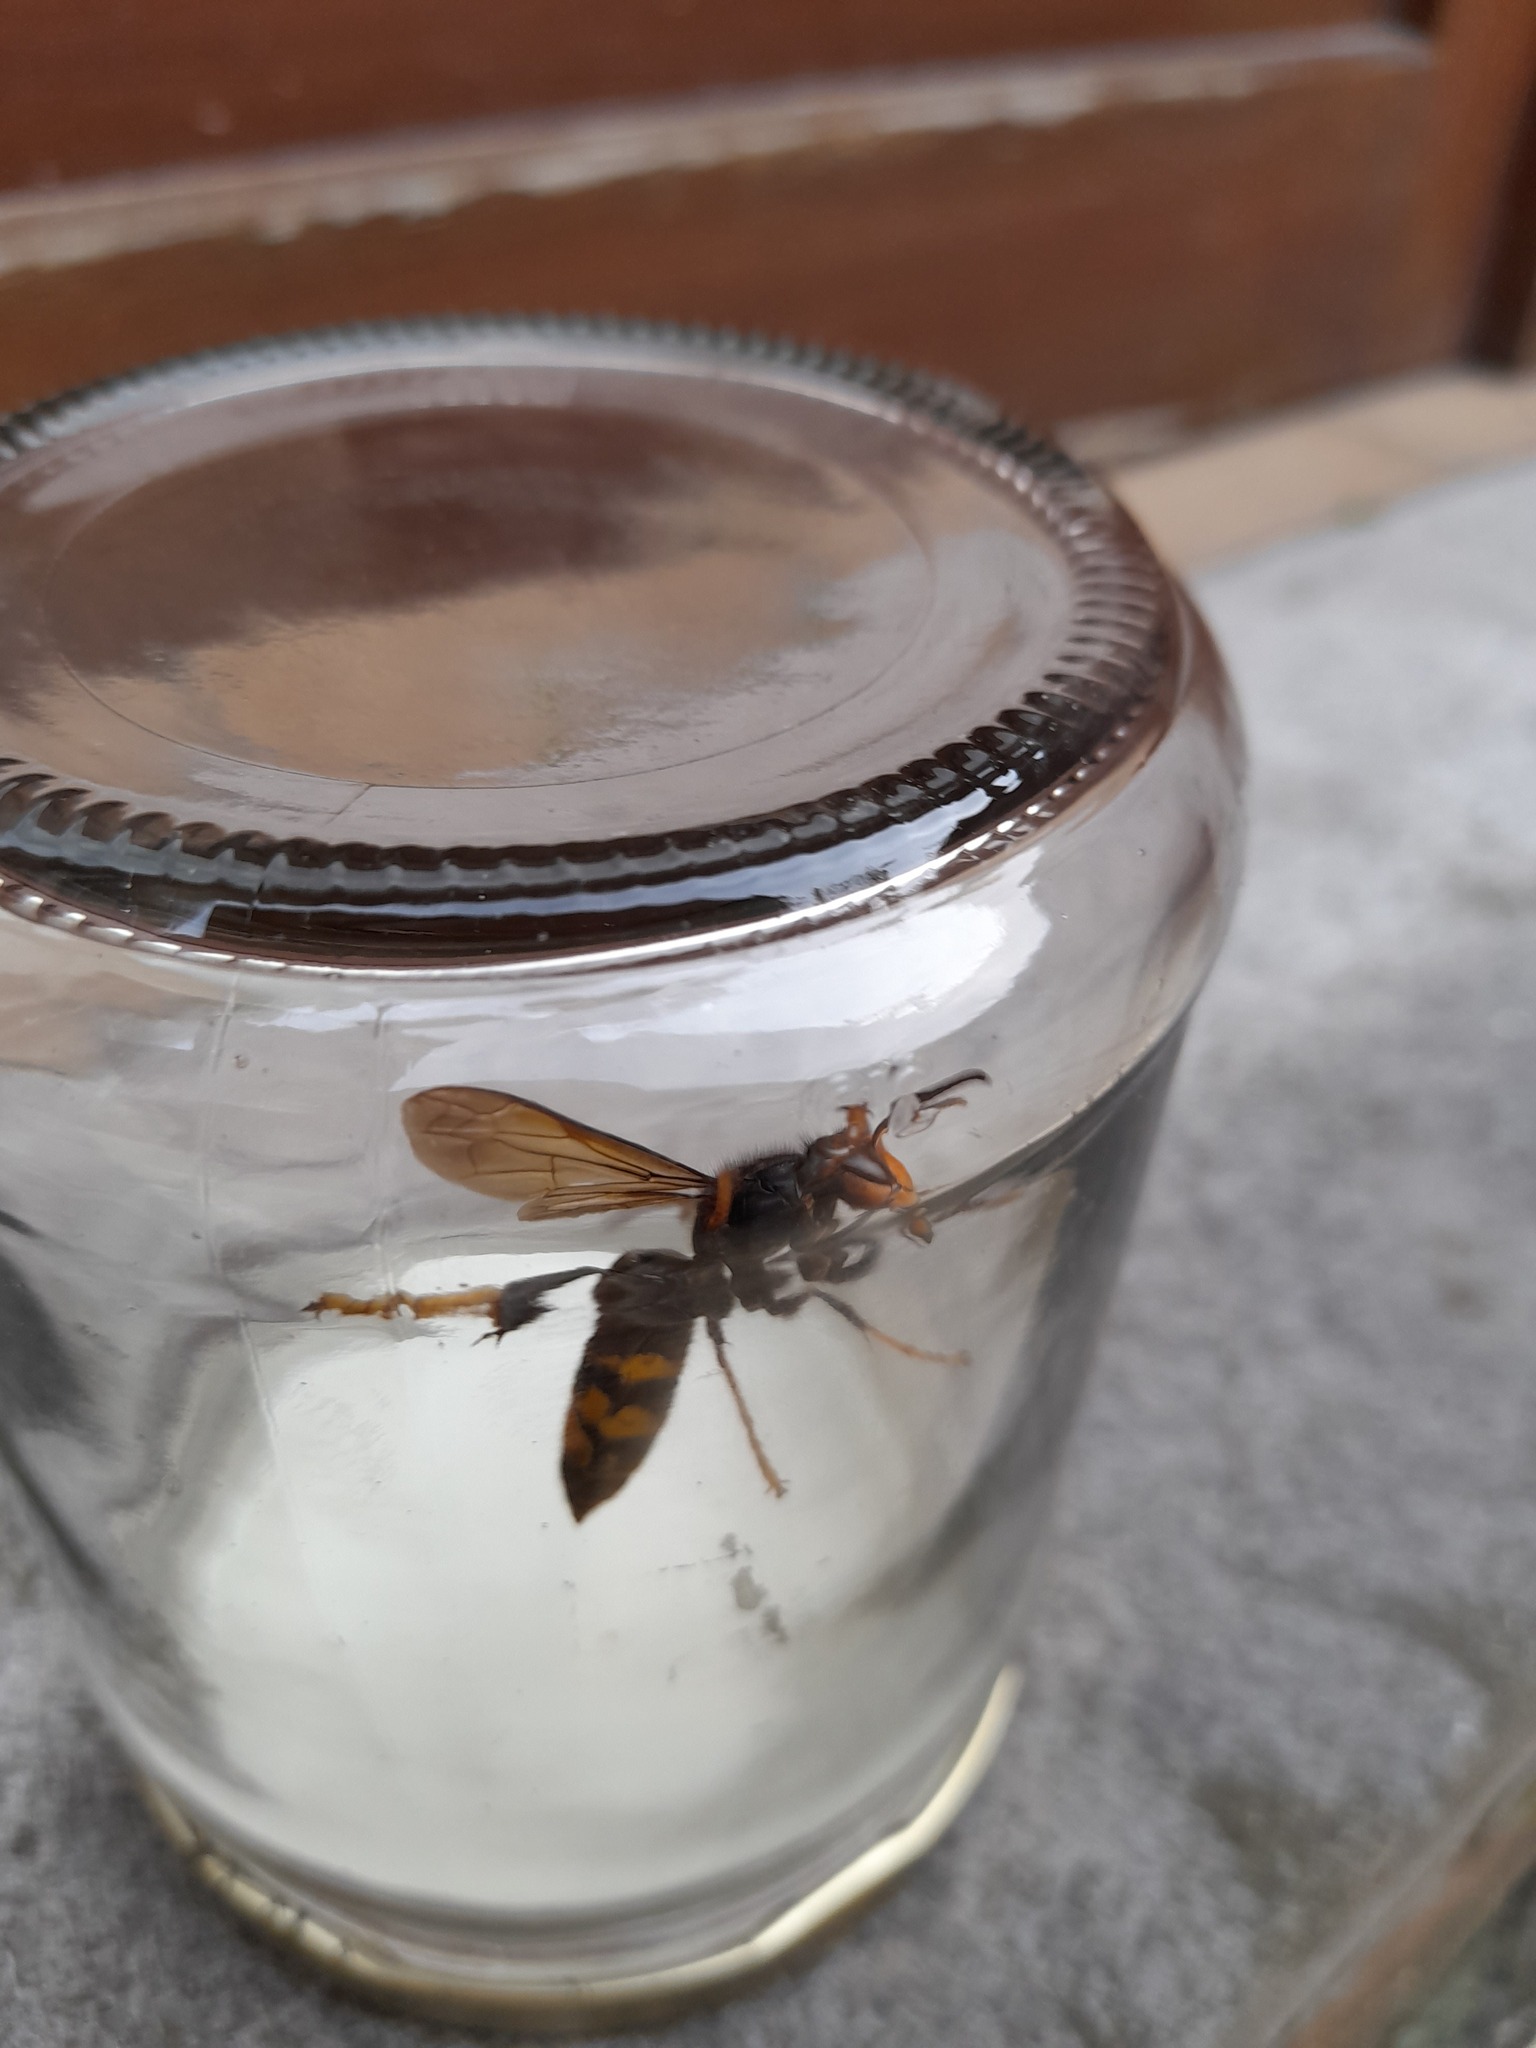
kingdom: Animalia
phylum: Arthropoda
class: Insecta
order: Hymenoptera
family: Vespidae
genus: Vespa
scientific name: Vespa velutina
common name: Asian hornet
